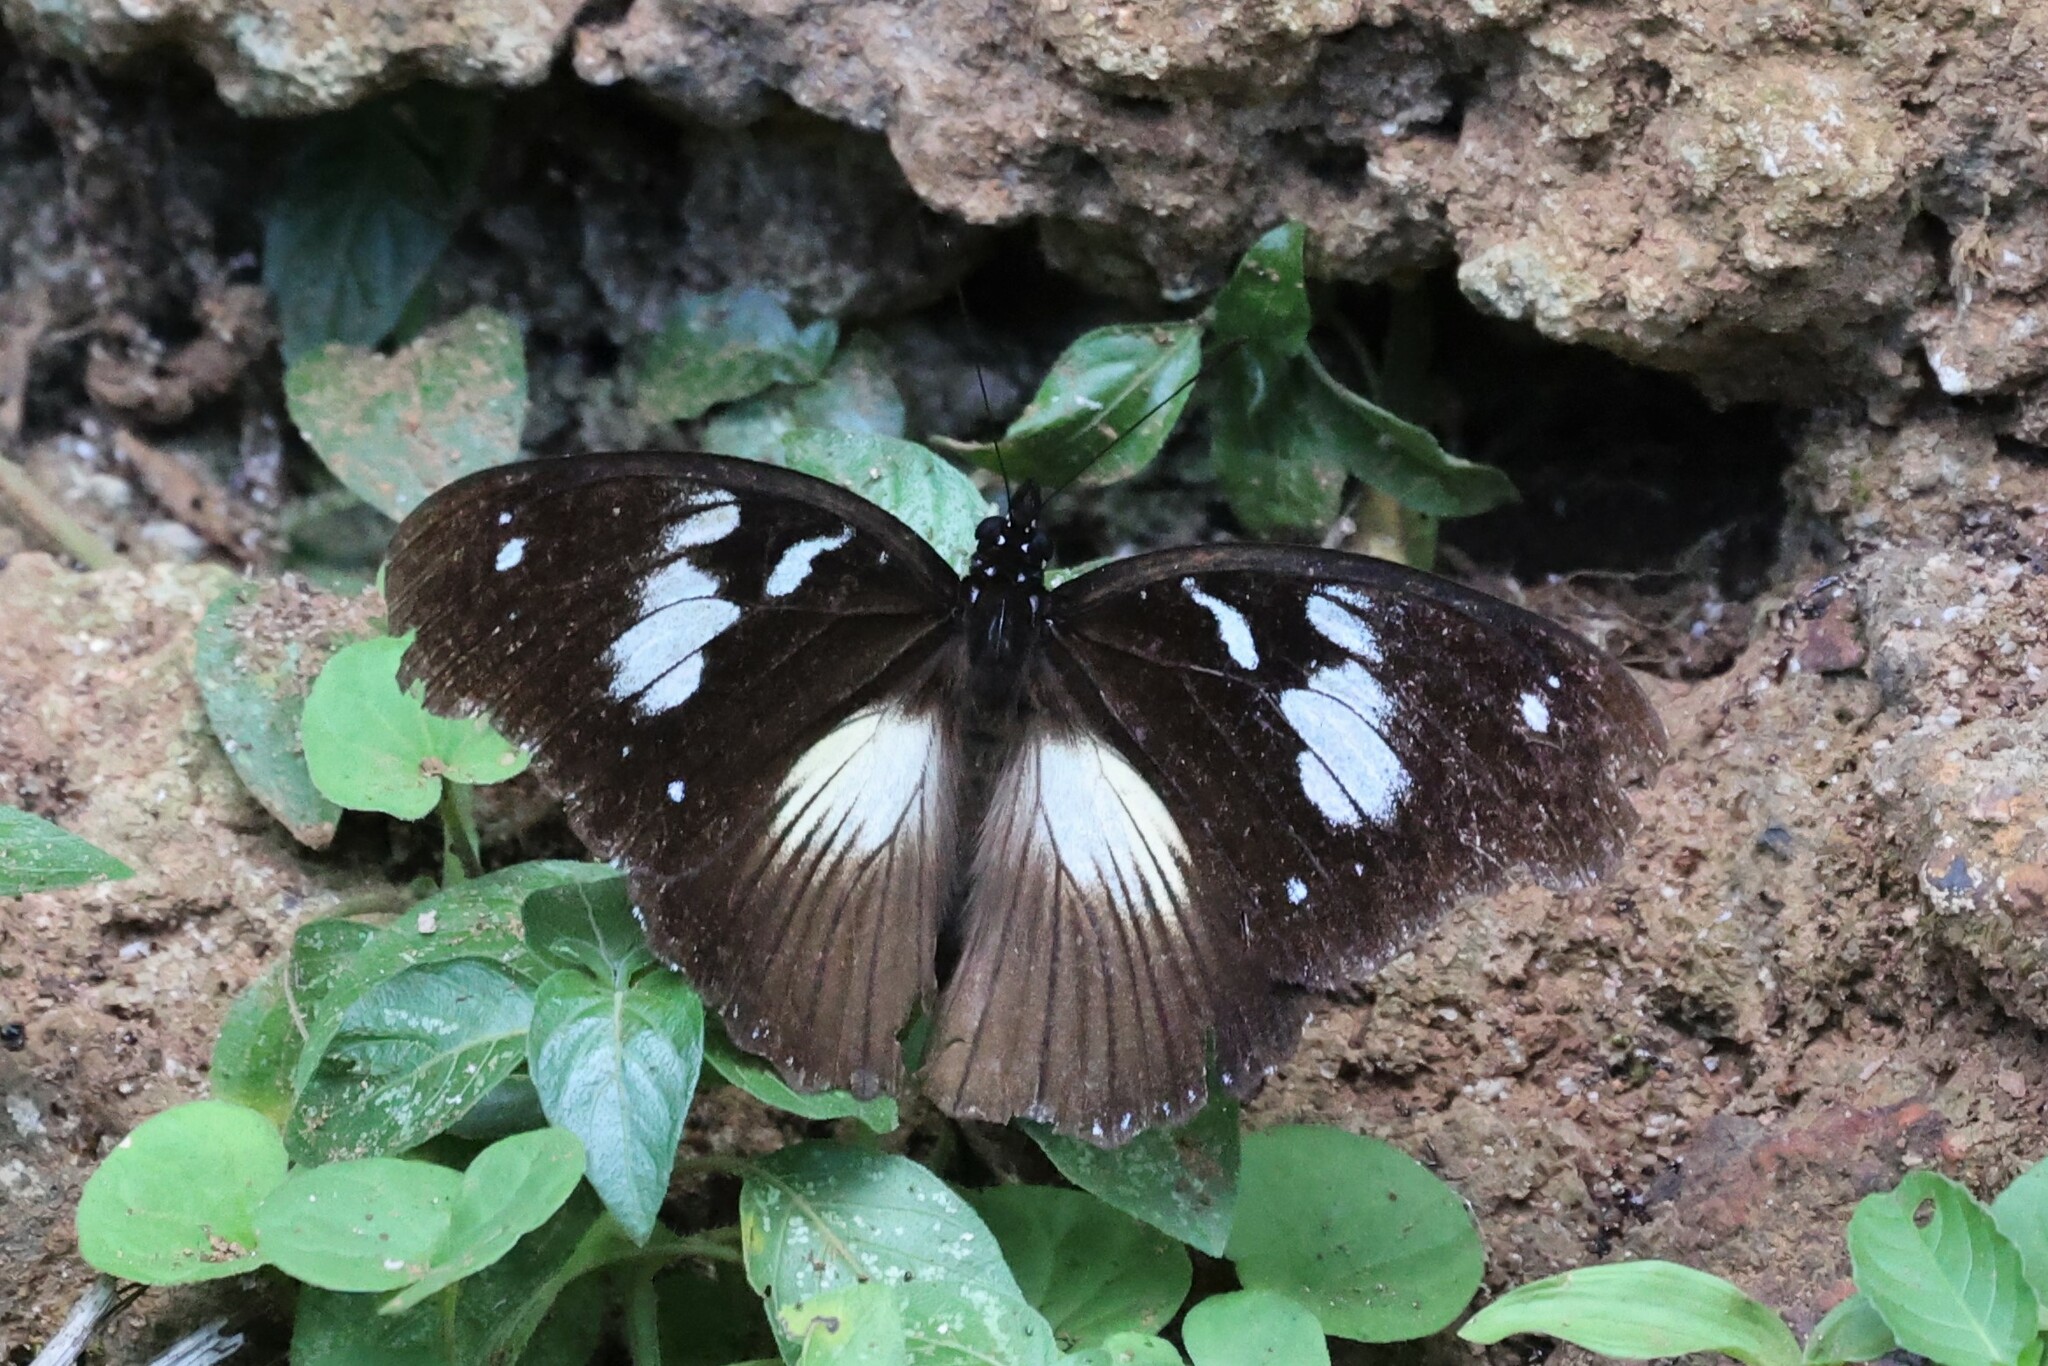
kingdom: Animalia
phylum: Arthropoda
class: Insecta
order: Lepidoptera
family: Nymphalidae
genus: Hypolimnas
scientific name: Hypolimnas bartteloti
